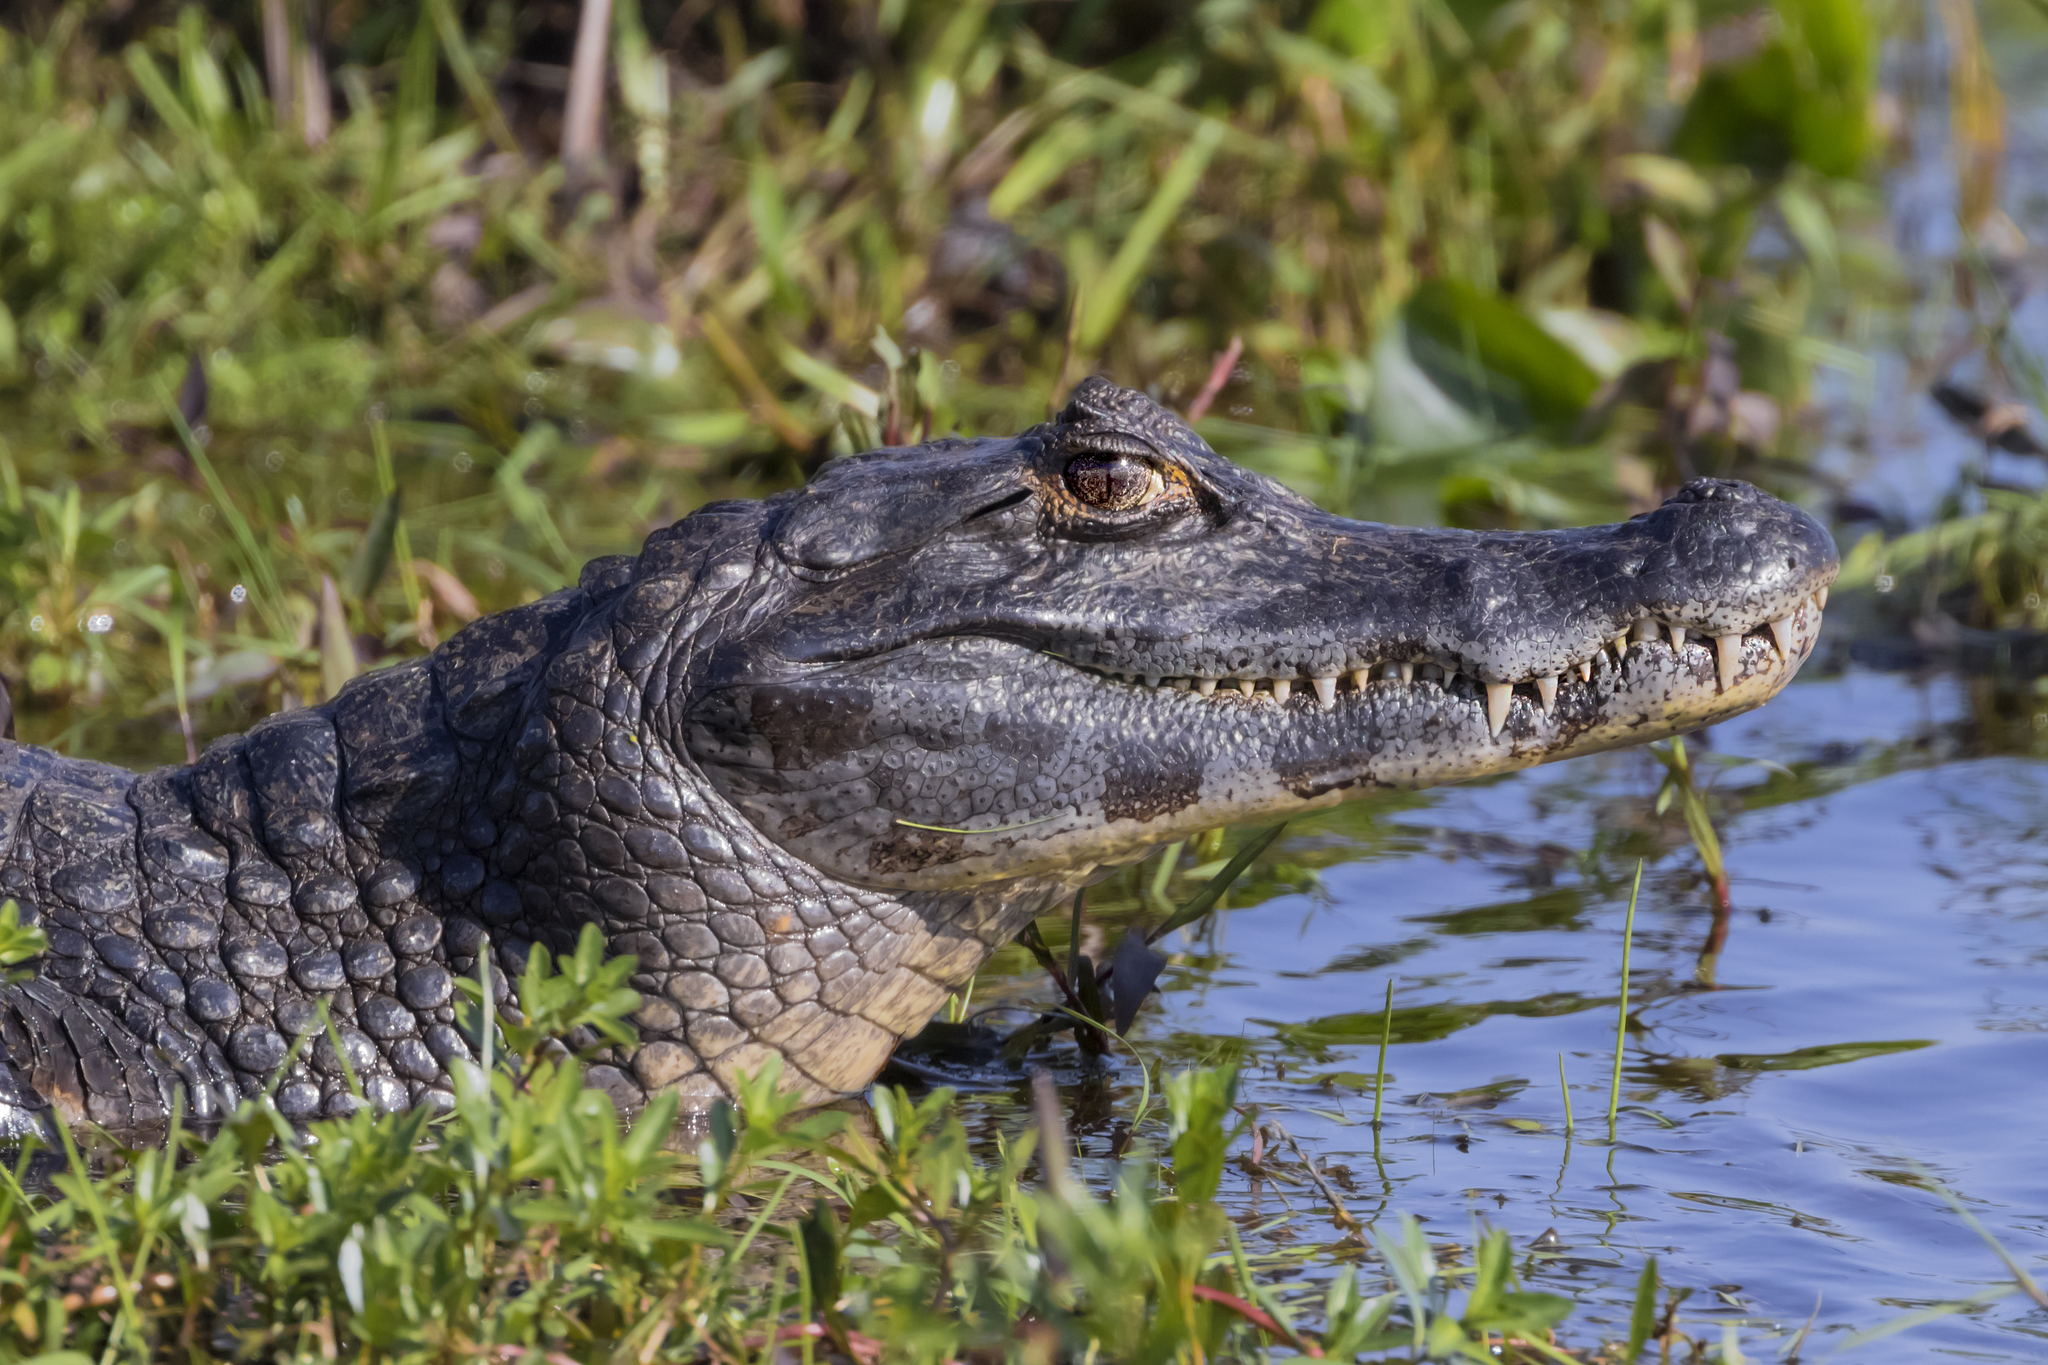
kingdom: Animalia
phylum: Chordata
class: Crocodylia
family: Alligatoridae
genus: Caiman
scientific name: Caiman yacare
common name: Yacare caiman
